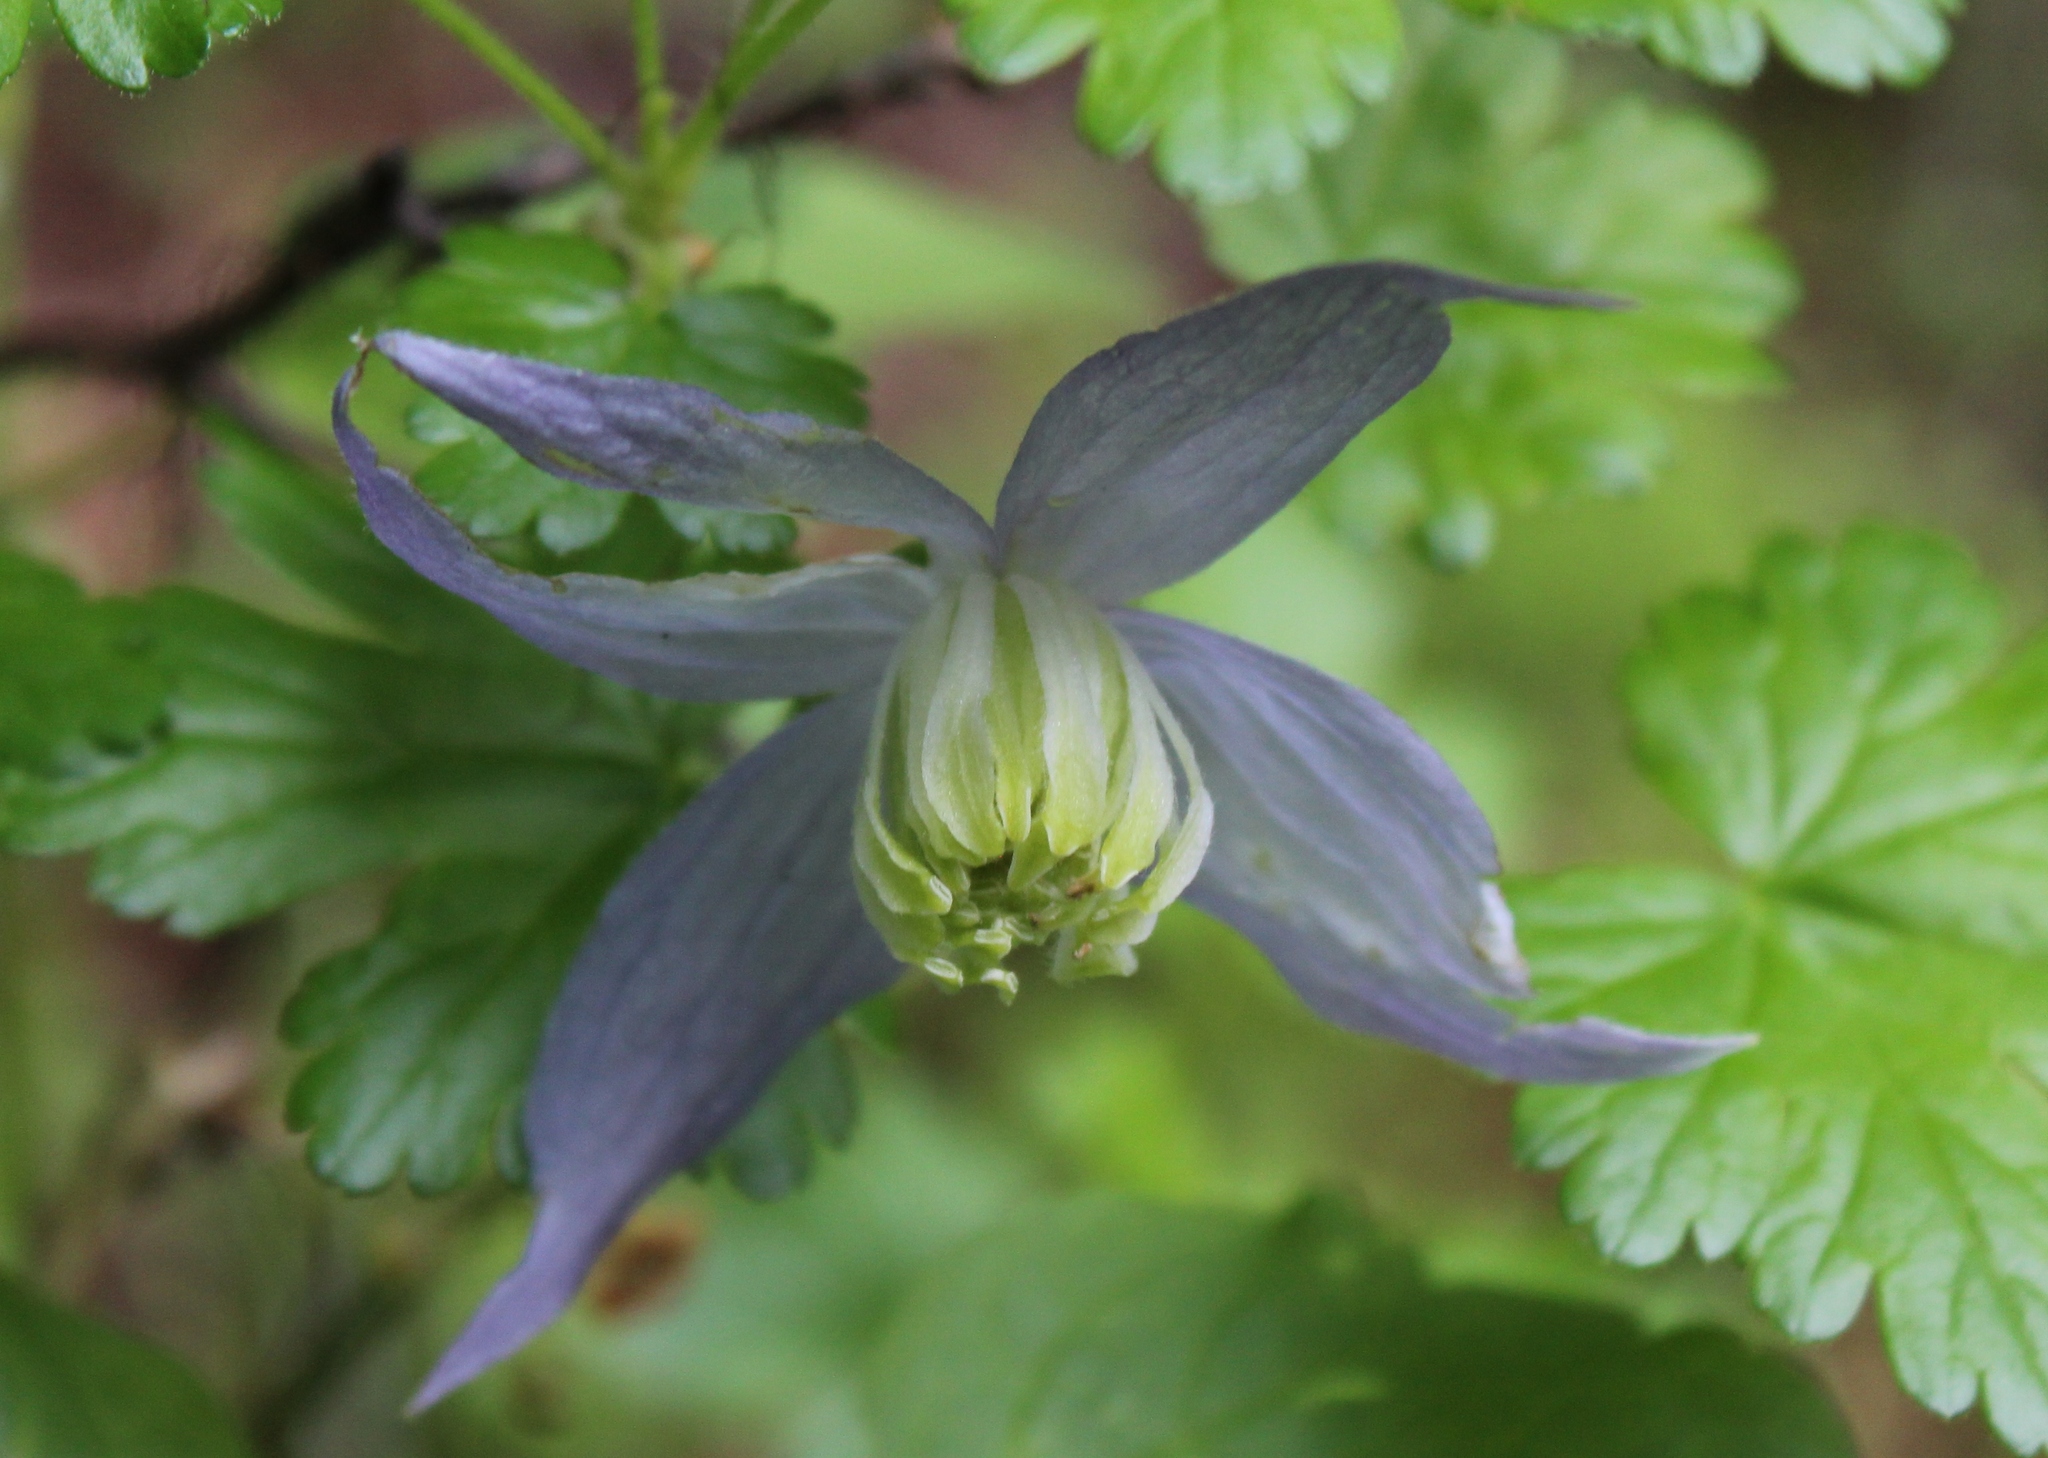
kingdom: Plantae
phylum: Tracheophyta
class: Magnoliopsida
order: Ranunculales
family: Ranunculaceae
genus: Clematis
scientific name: Clematis occidentalis
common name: Purple clematis
